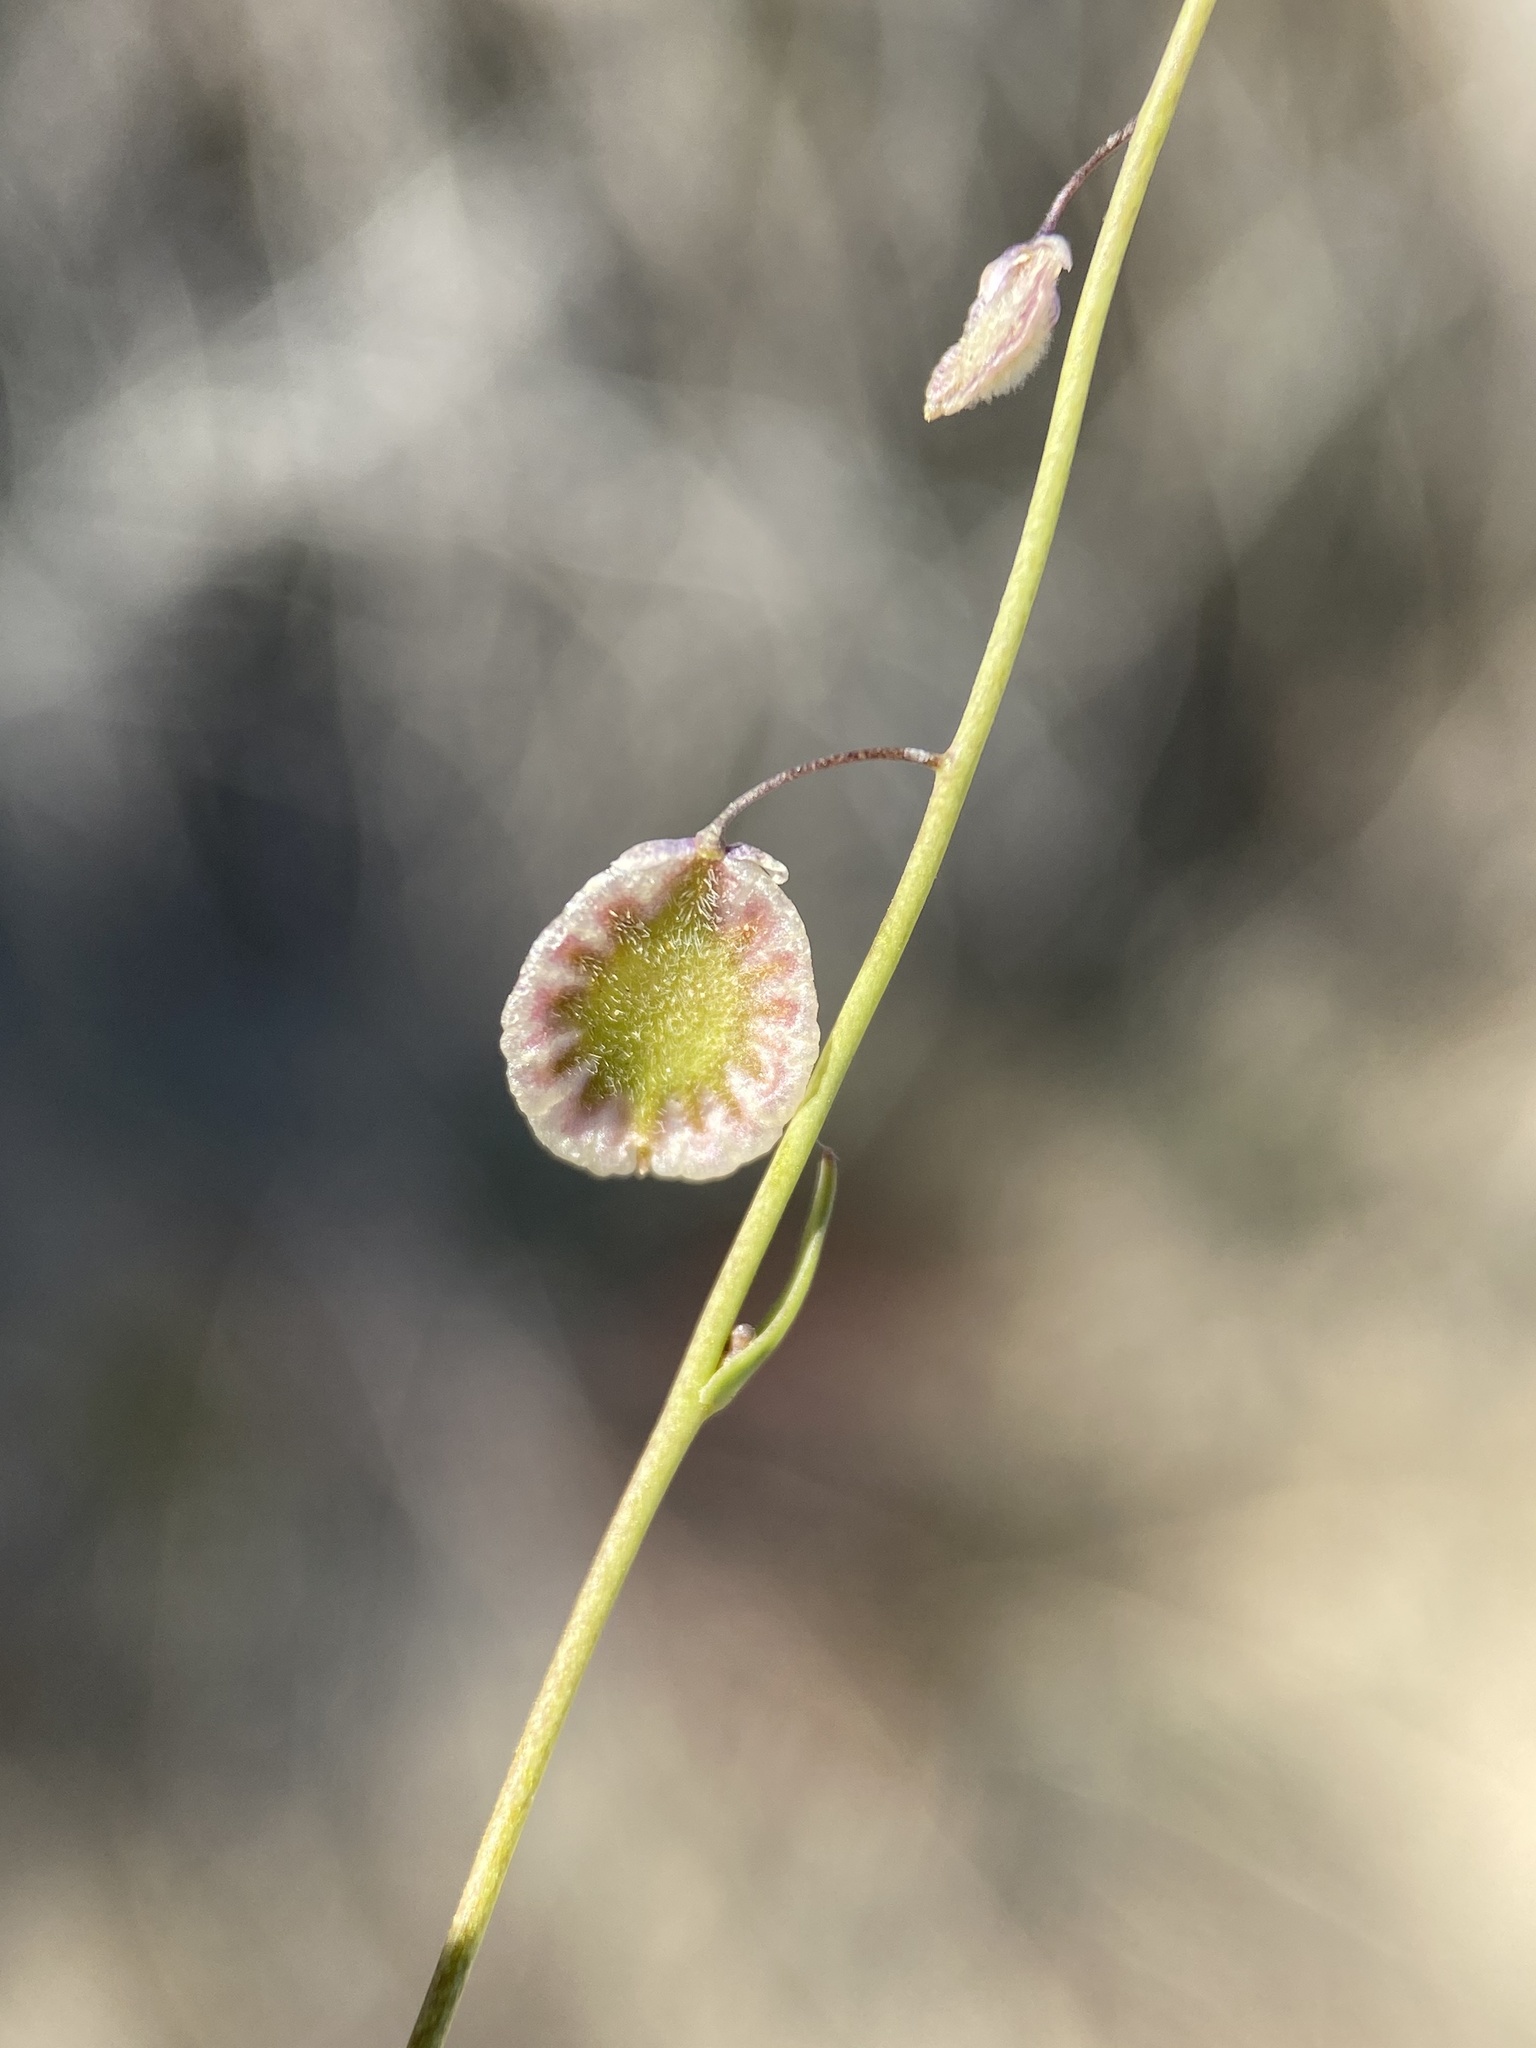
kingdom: Plantae
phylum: Tracheophyta
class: Magnoliopsida
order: Brassicales
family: Brassicaceae
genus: Thysanocarpus
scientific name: Thysanocarpus curvipes
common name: Sand fringepod
